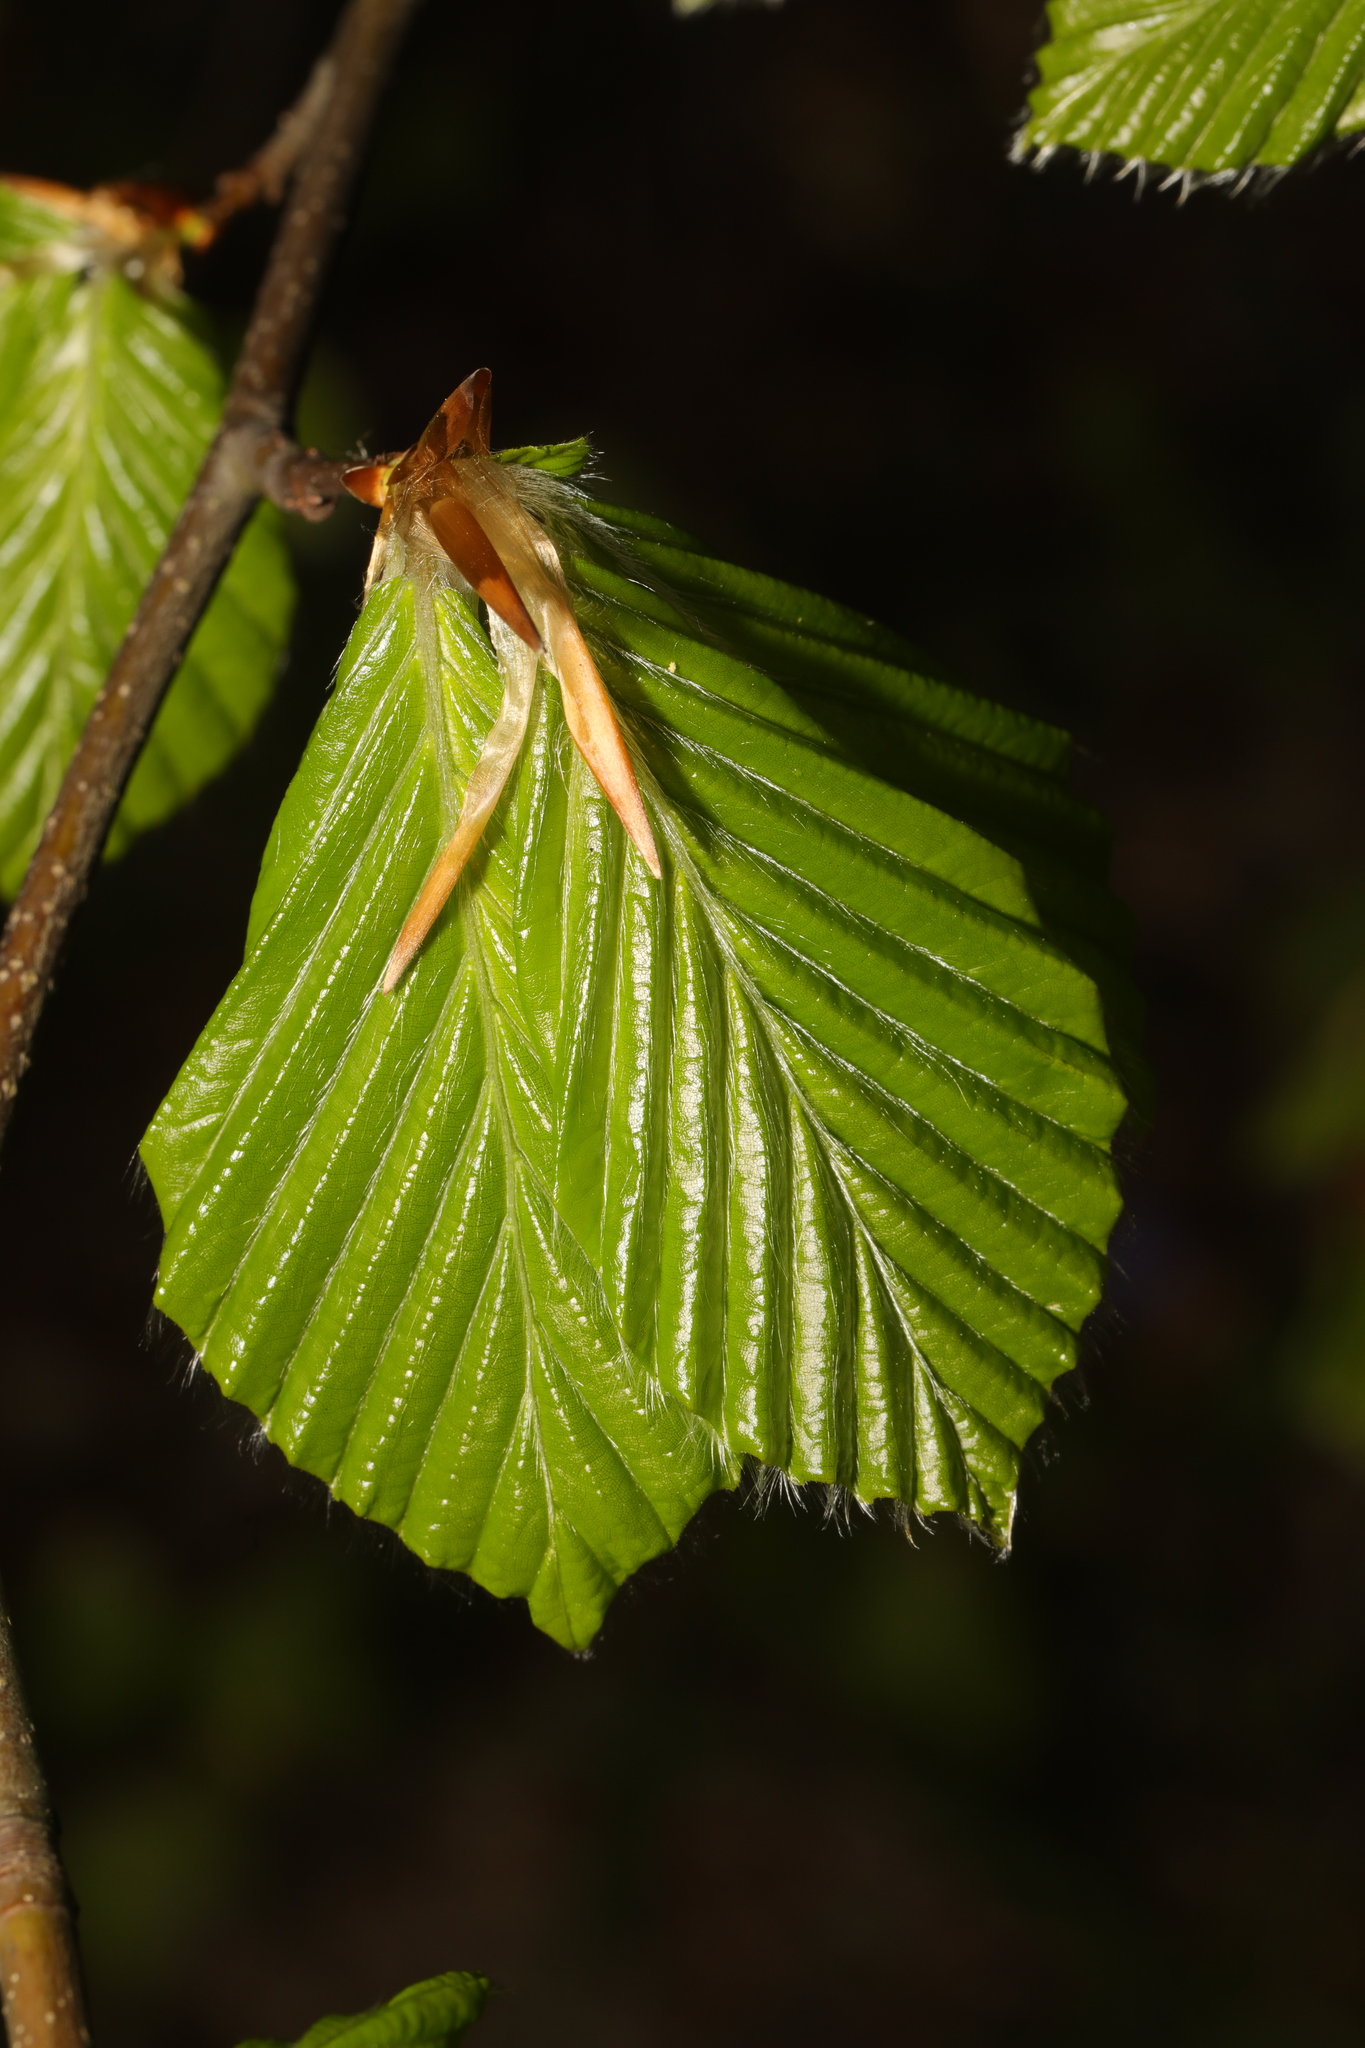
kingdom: Plantae
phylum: Tracheophyta
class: Magnoliopsida
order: Fagales
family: Fagaceae
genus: Fagus
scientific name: Fagus sylvatica
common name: Beech
